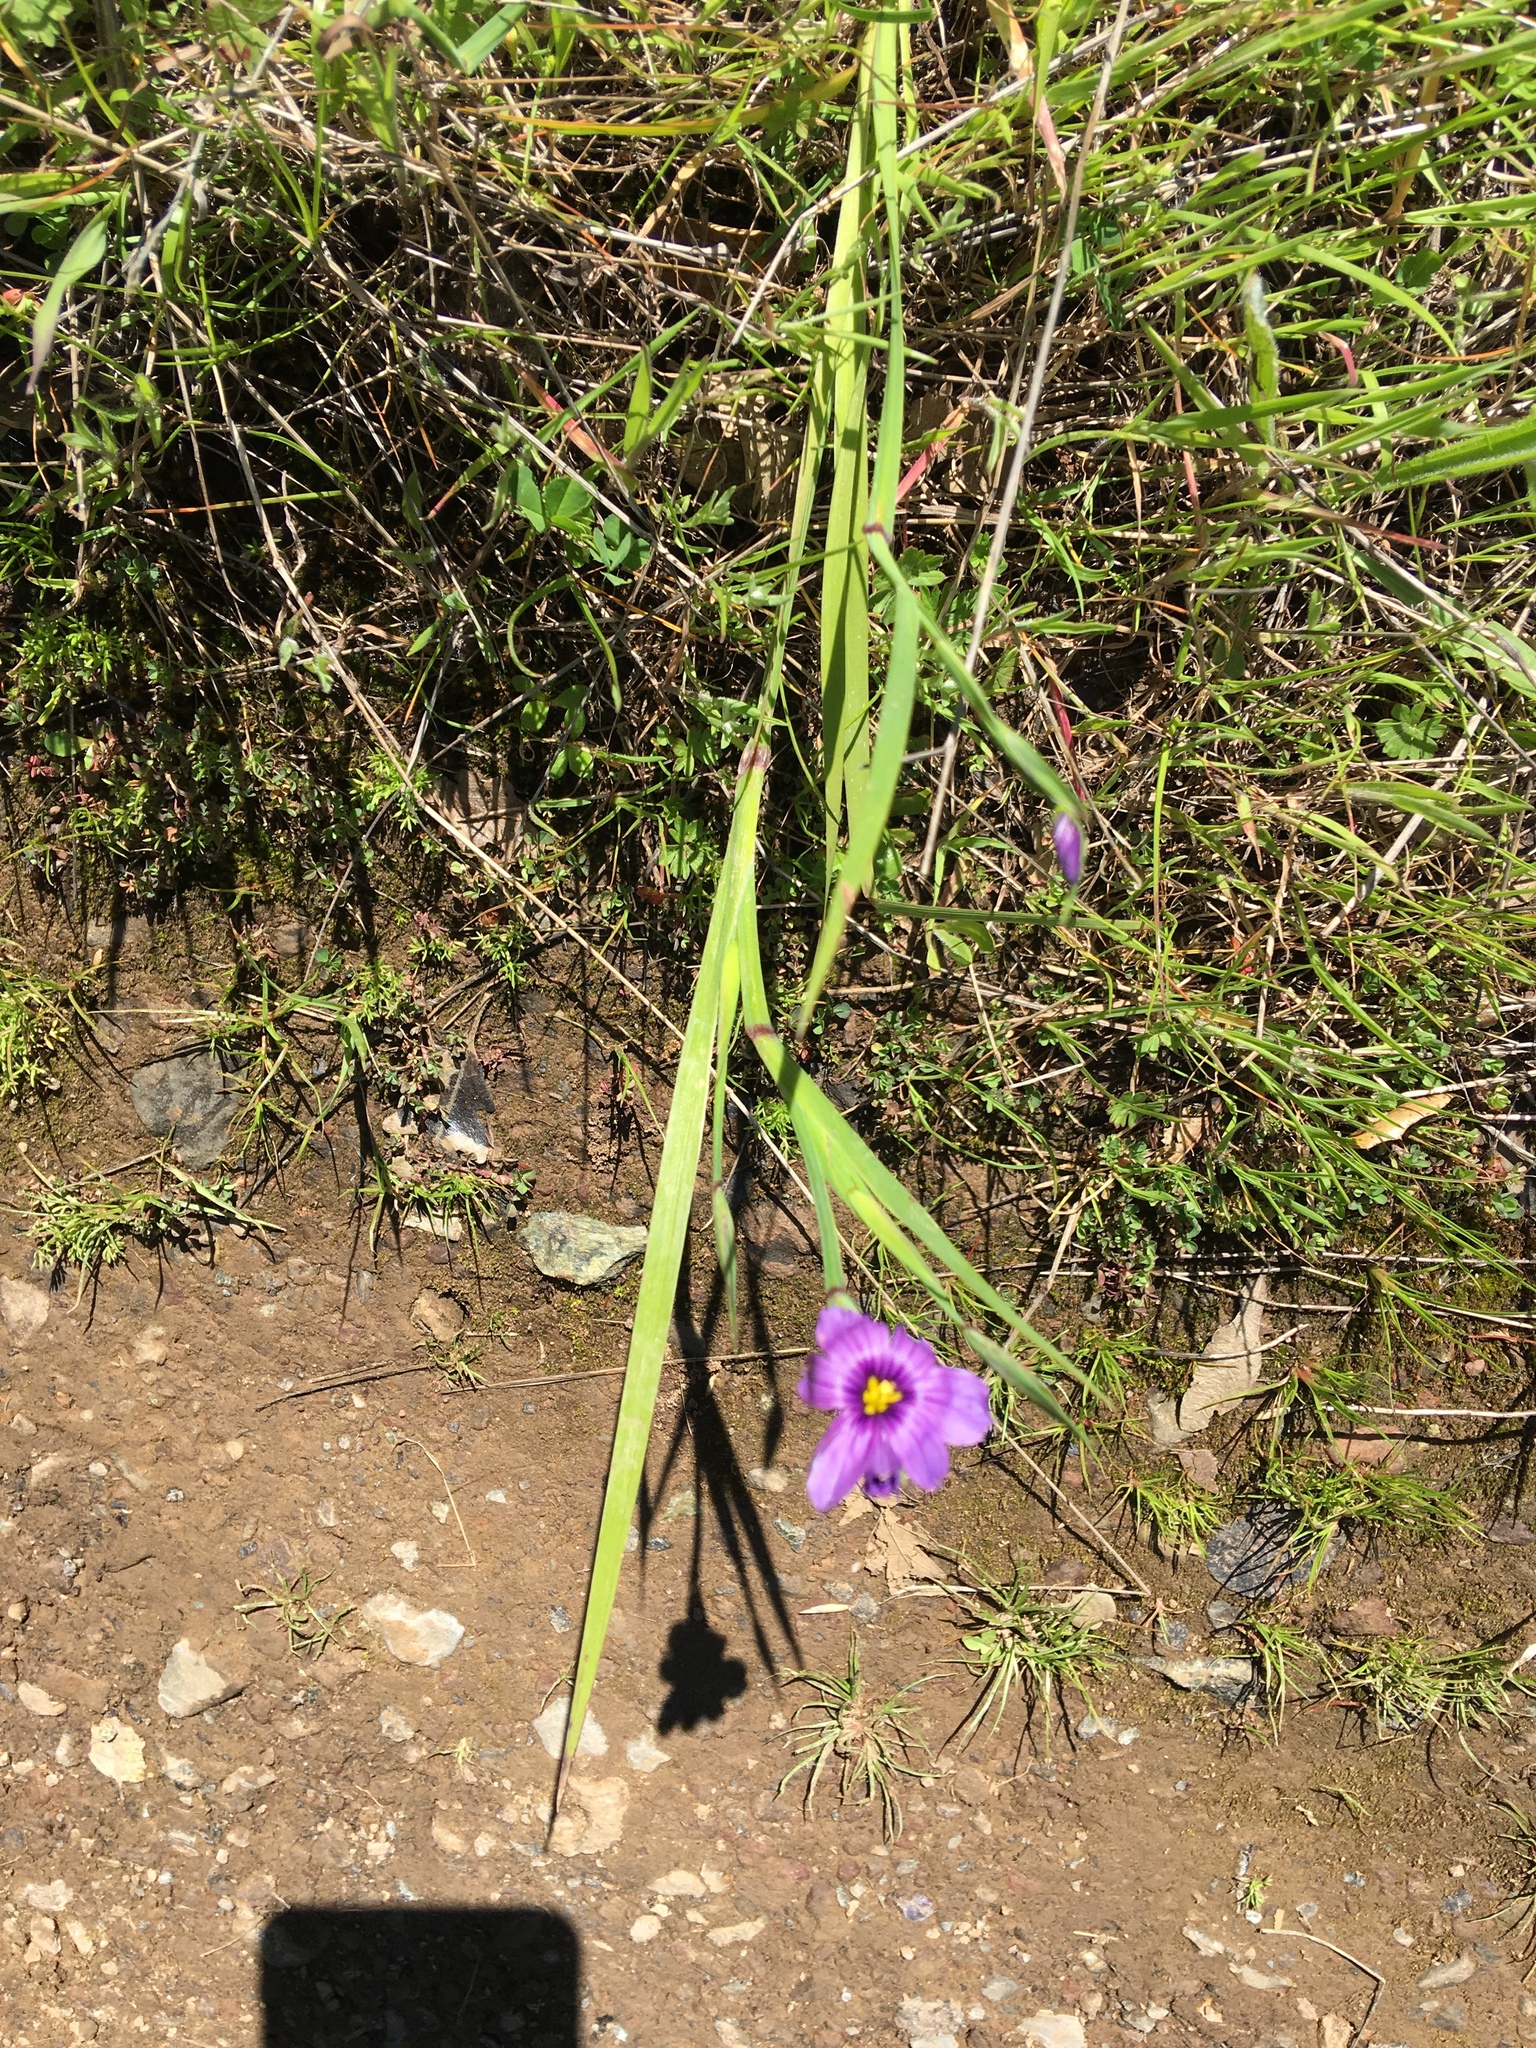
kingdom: Plantae
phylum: Tracheophyta
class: Liliopsida
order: Asparagales
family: Iridaceae
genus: Sisyrinchium
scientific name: Sisyrinchium bellum
